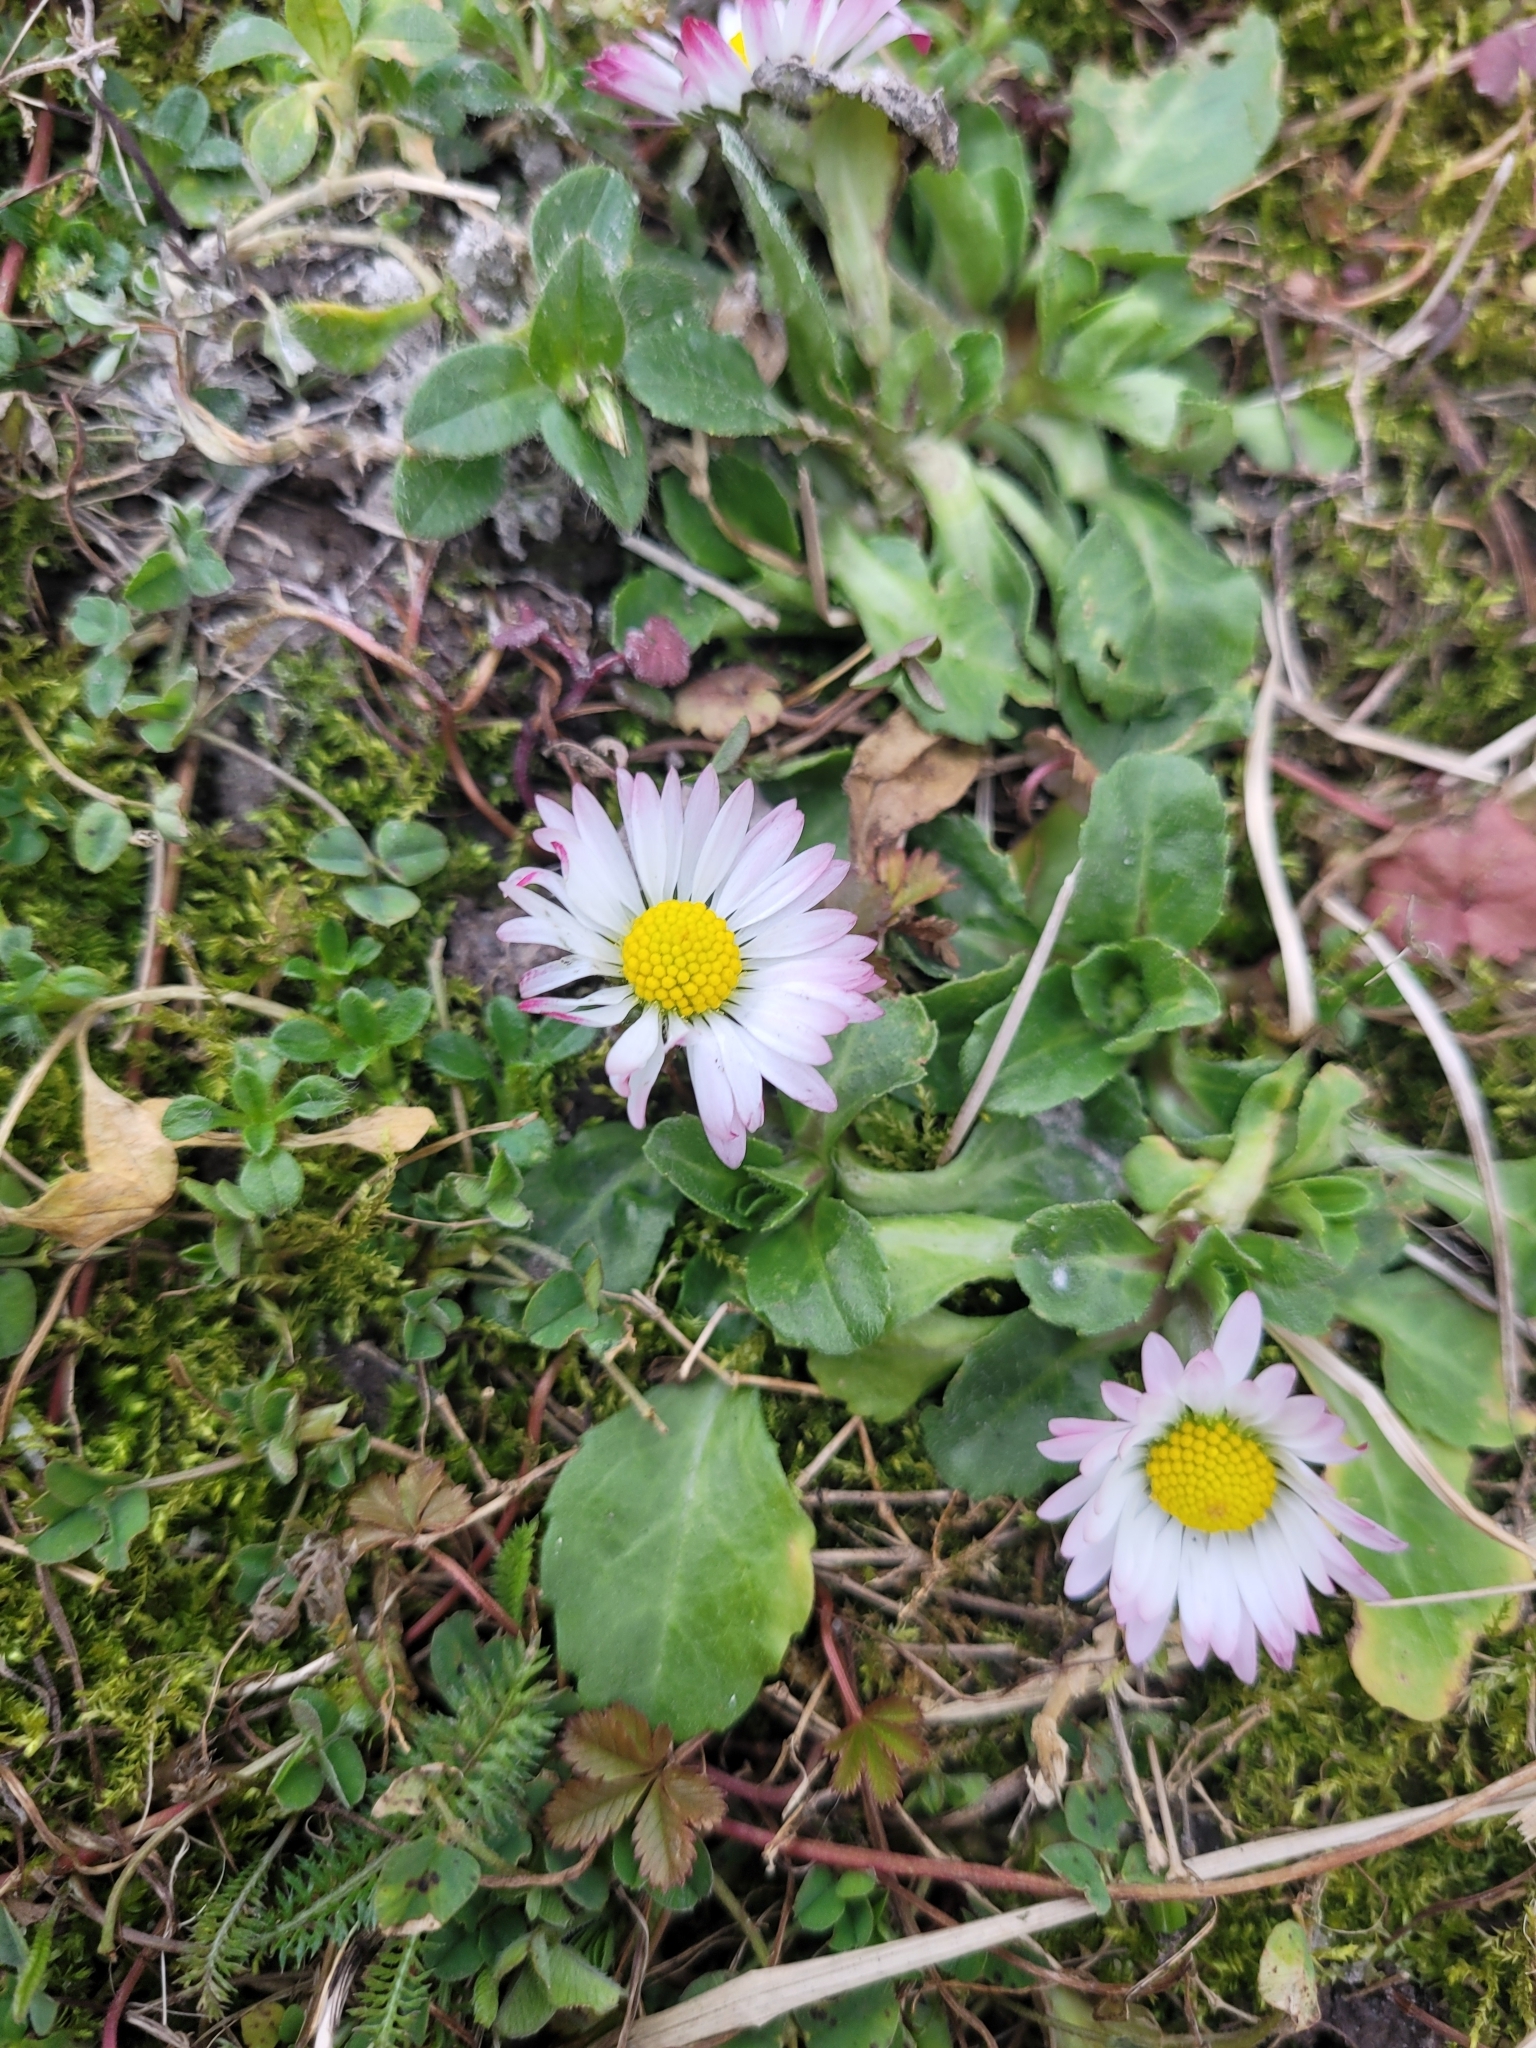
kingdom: Plantae
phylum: Tracheophyta
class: Magnoliopsida
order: Asterales
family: Asteraceae
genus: Bellis
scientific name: Bellis perennis
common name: Lawndaisy
